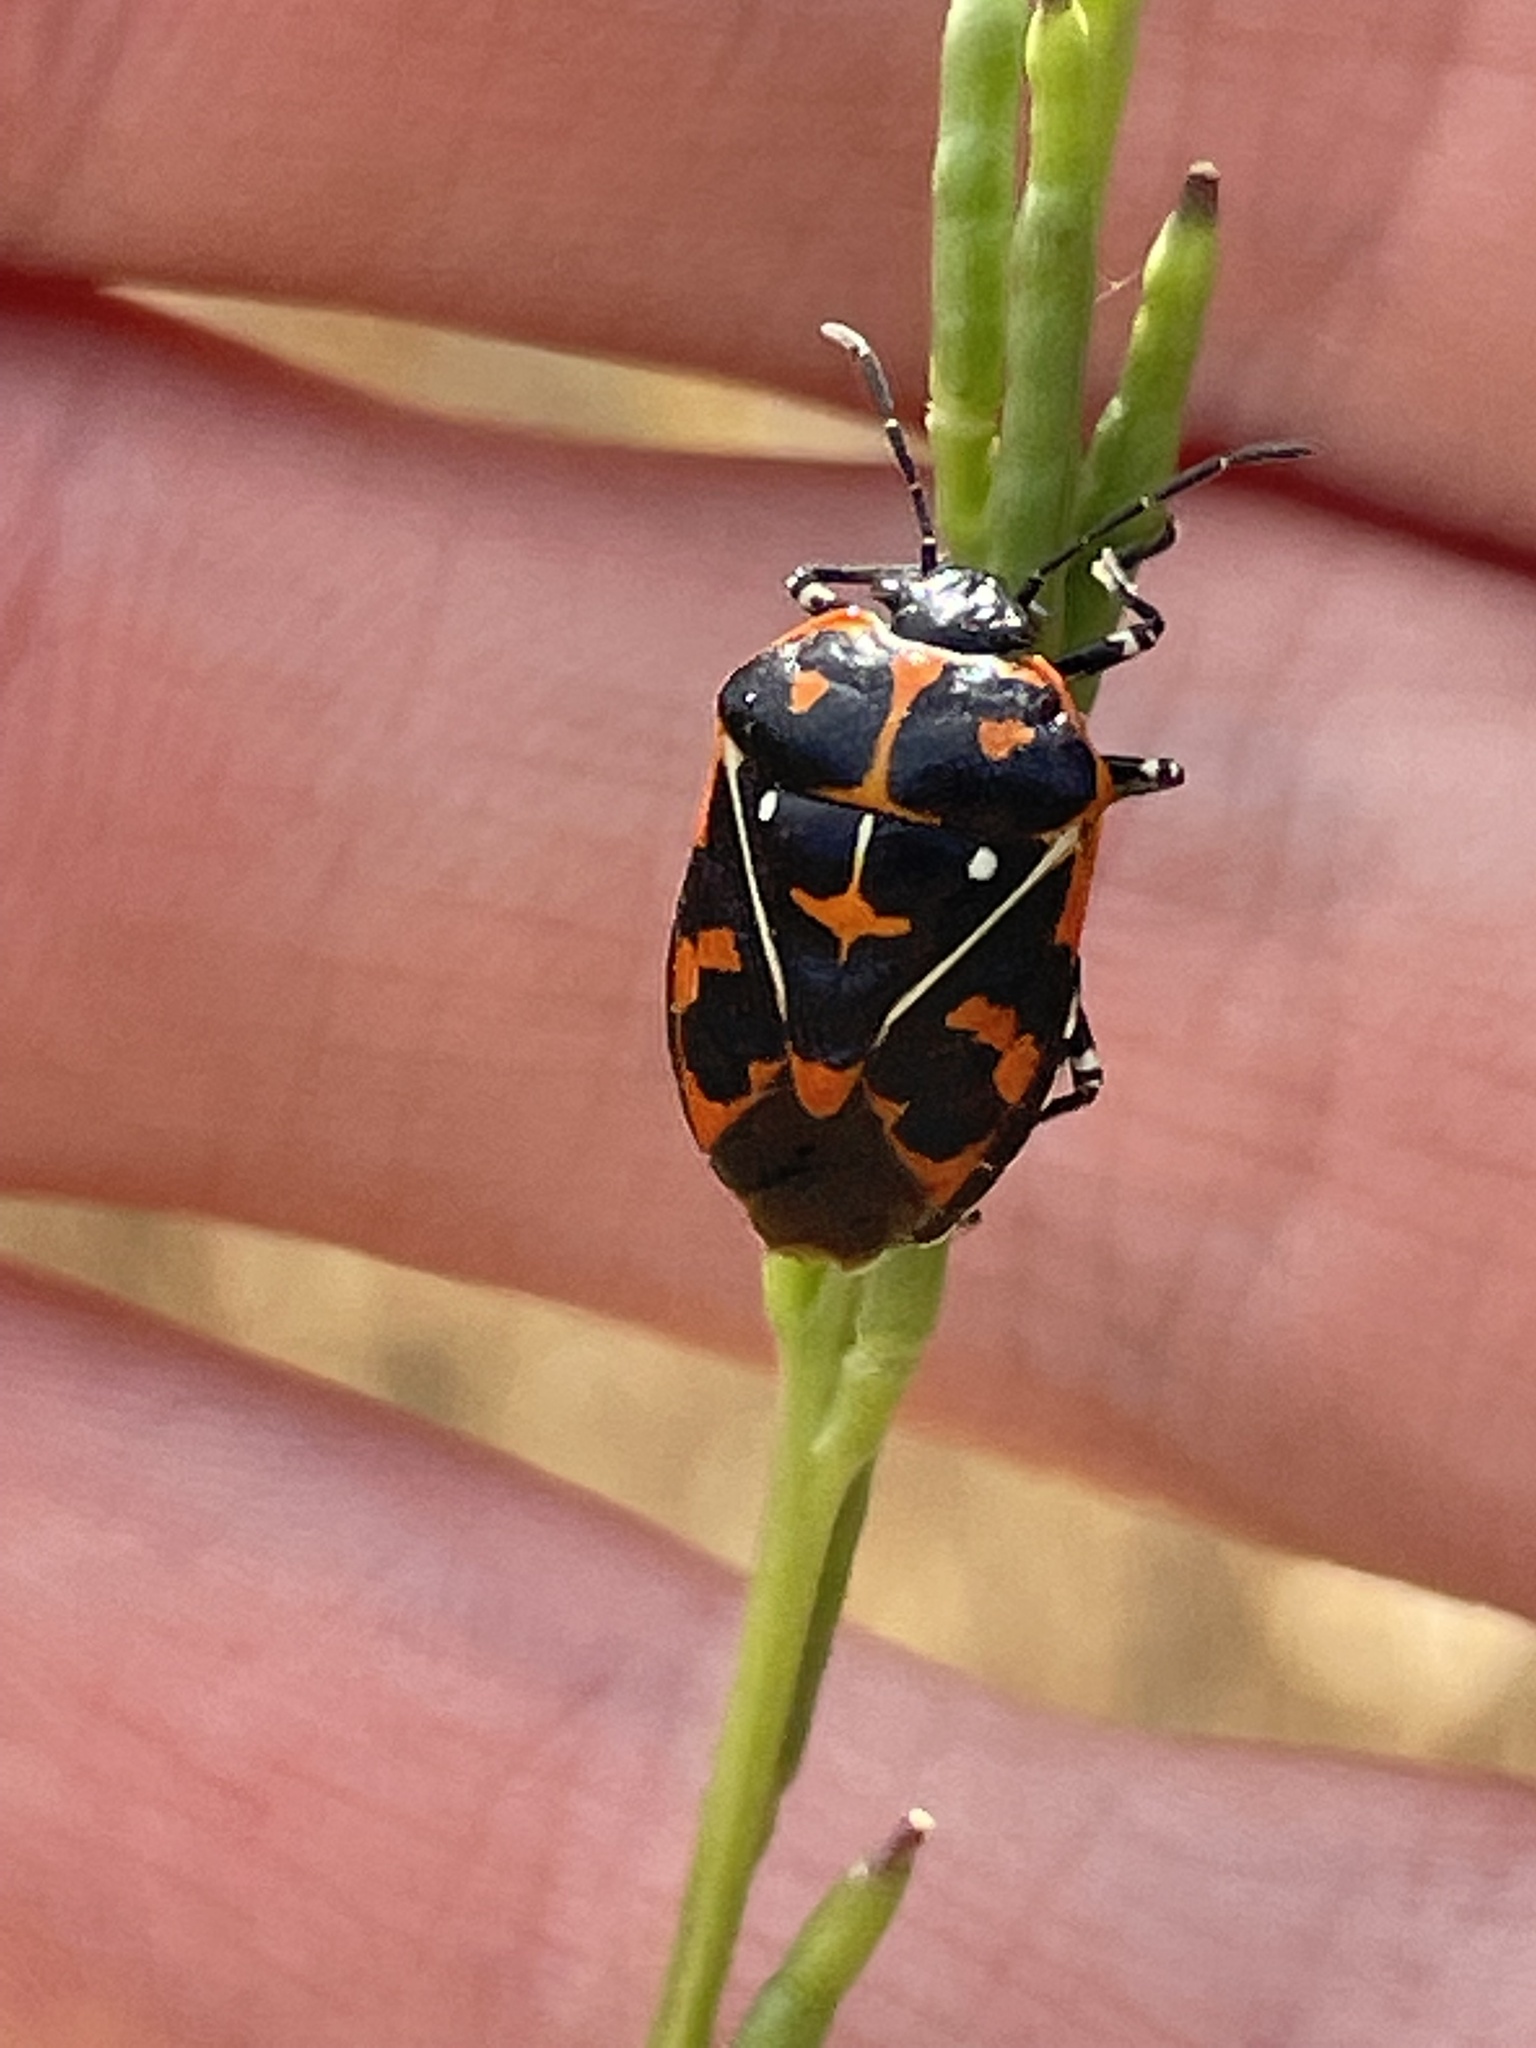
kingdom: Animalia
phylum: Arthropoda
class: Insecta
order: Hemiptera
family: Pentatomidae
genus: Murgantia
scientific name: Murgantia histrionica
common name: Harlequin bug
